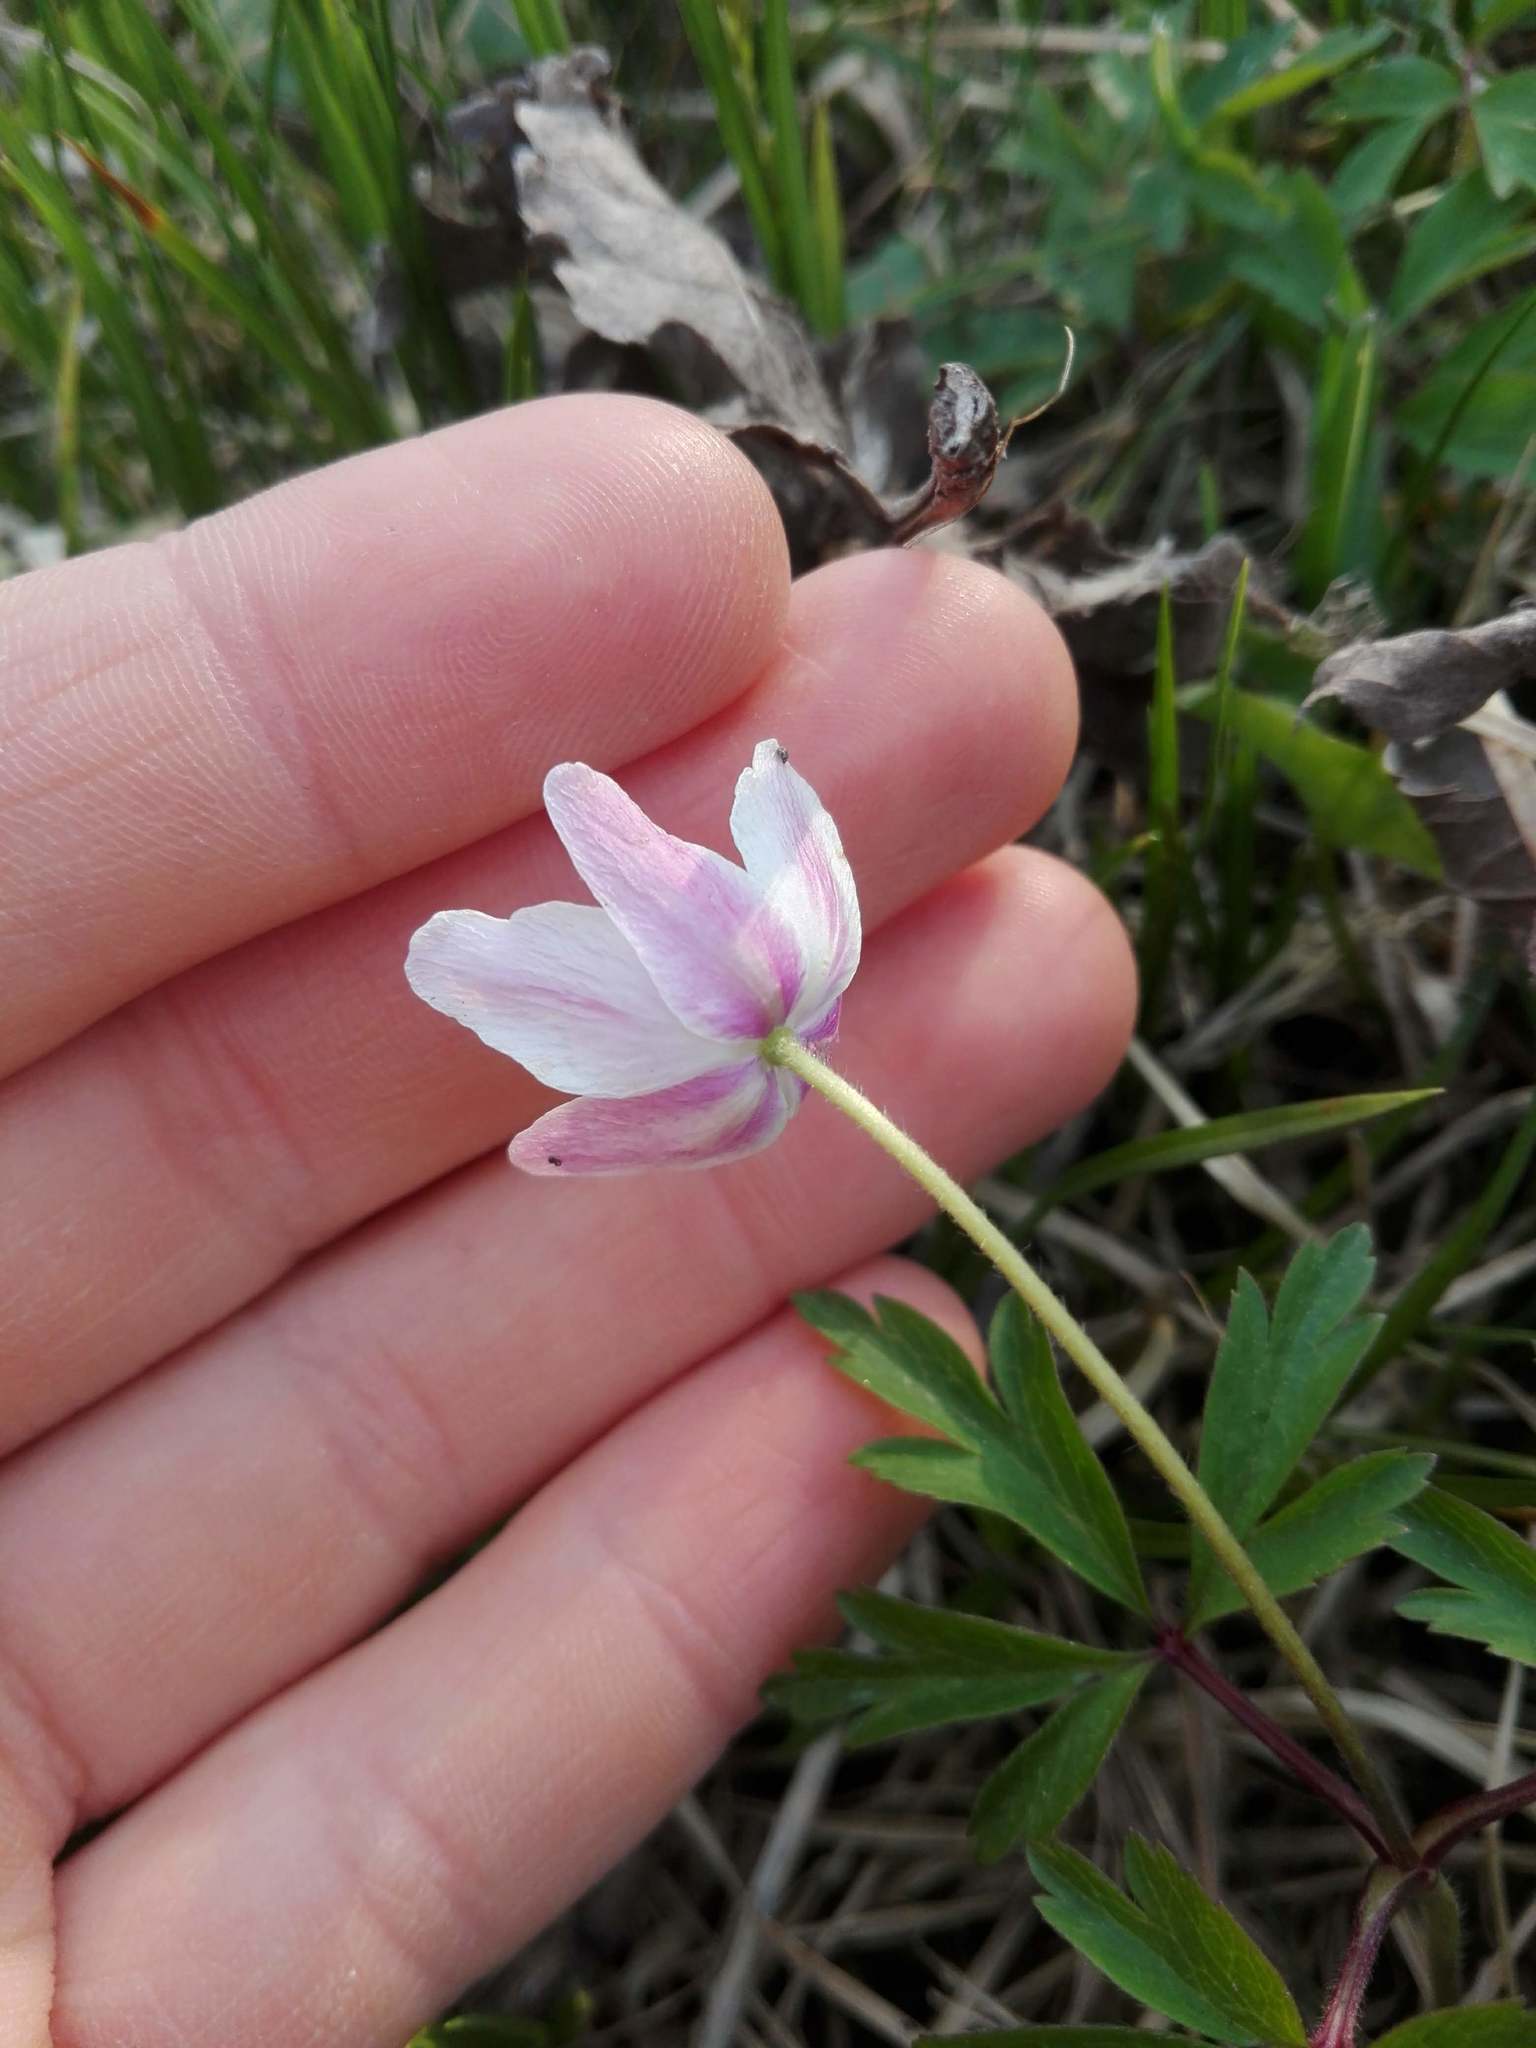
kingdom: Plantae
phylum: Tracheophyta
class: Magnoliopsida
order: Ranunculales
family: Ranunculaceae
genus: Anemone
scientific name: Anemone nemorosa
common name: Wood anemone
